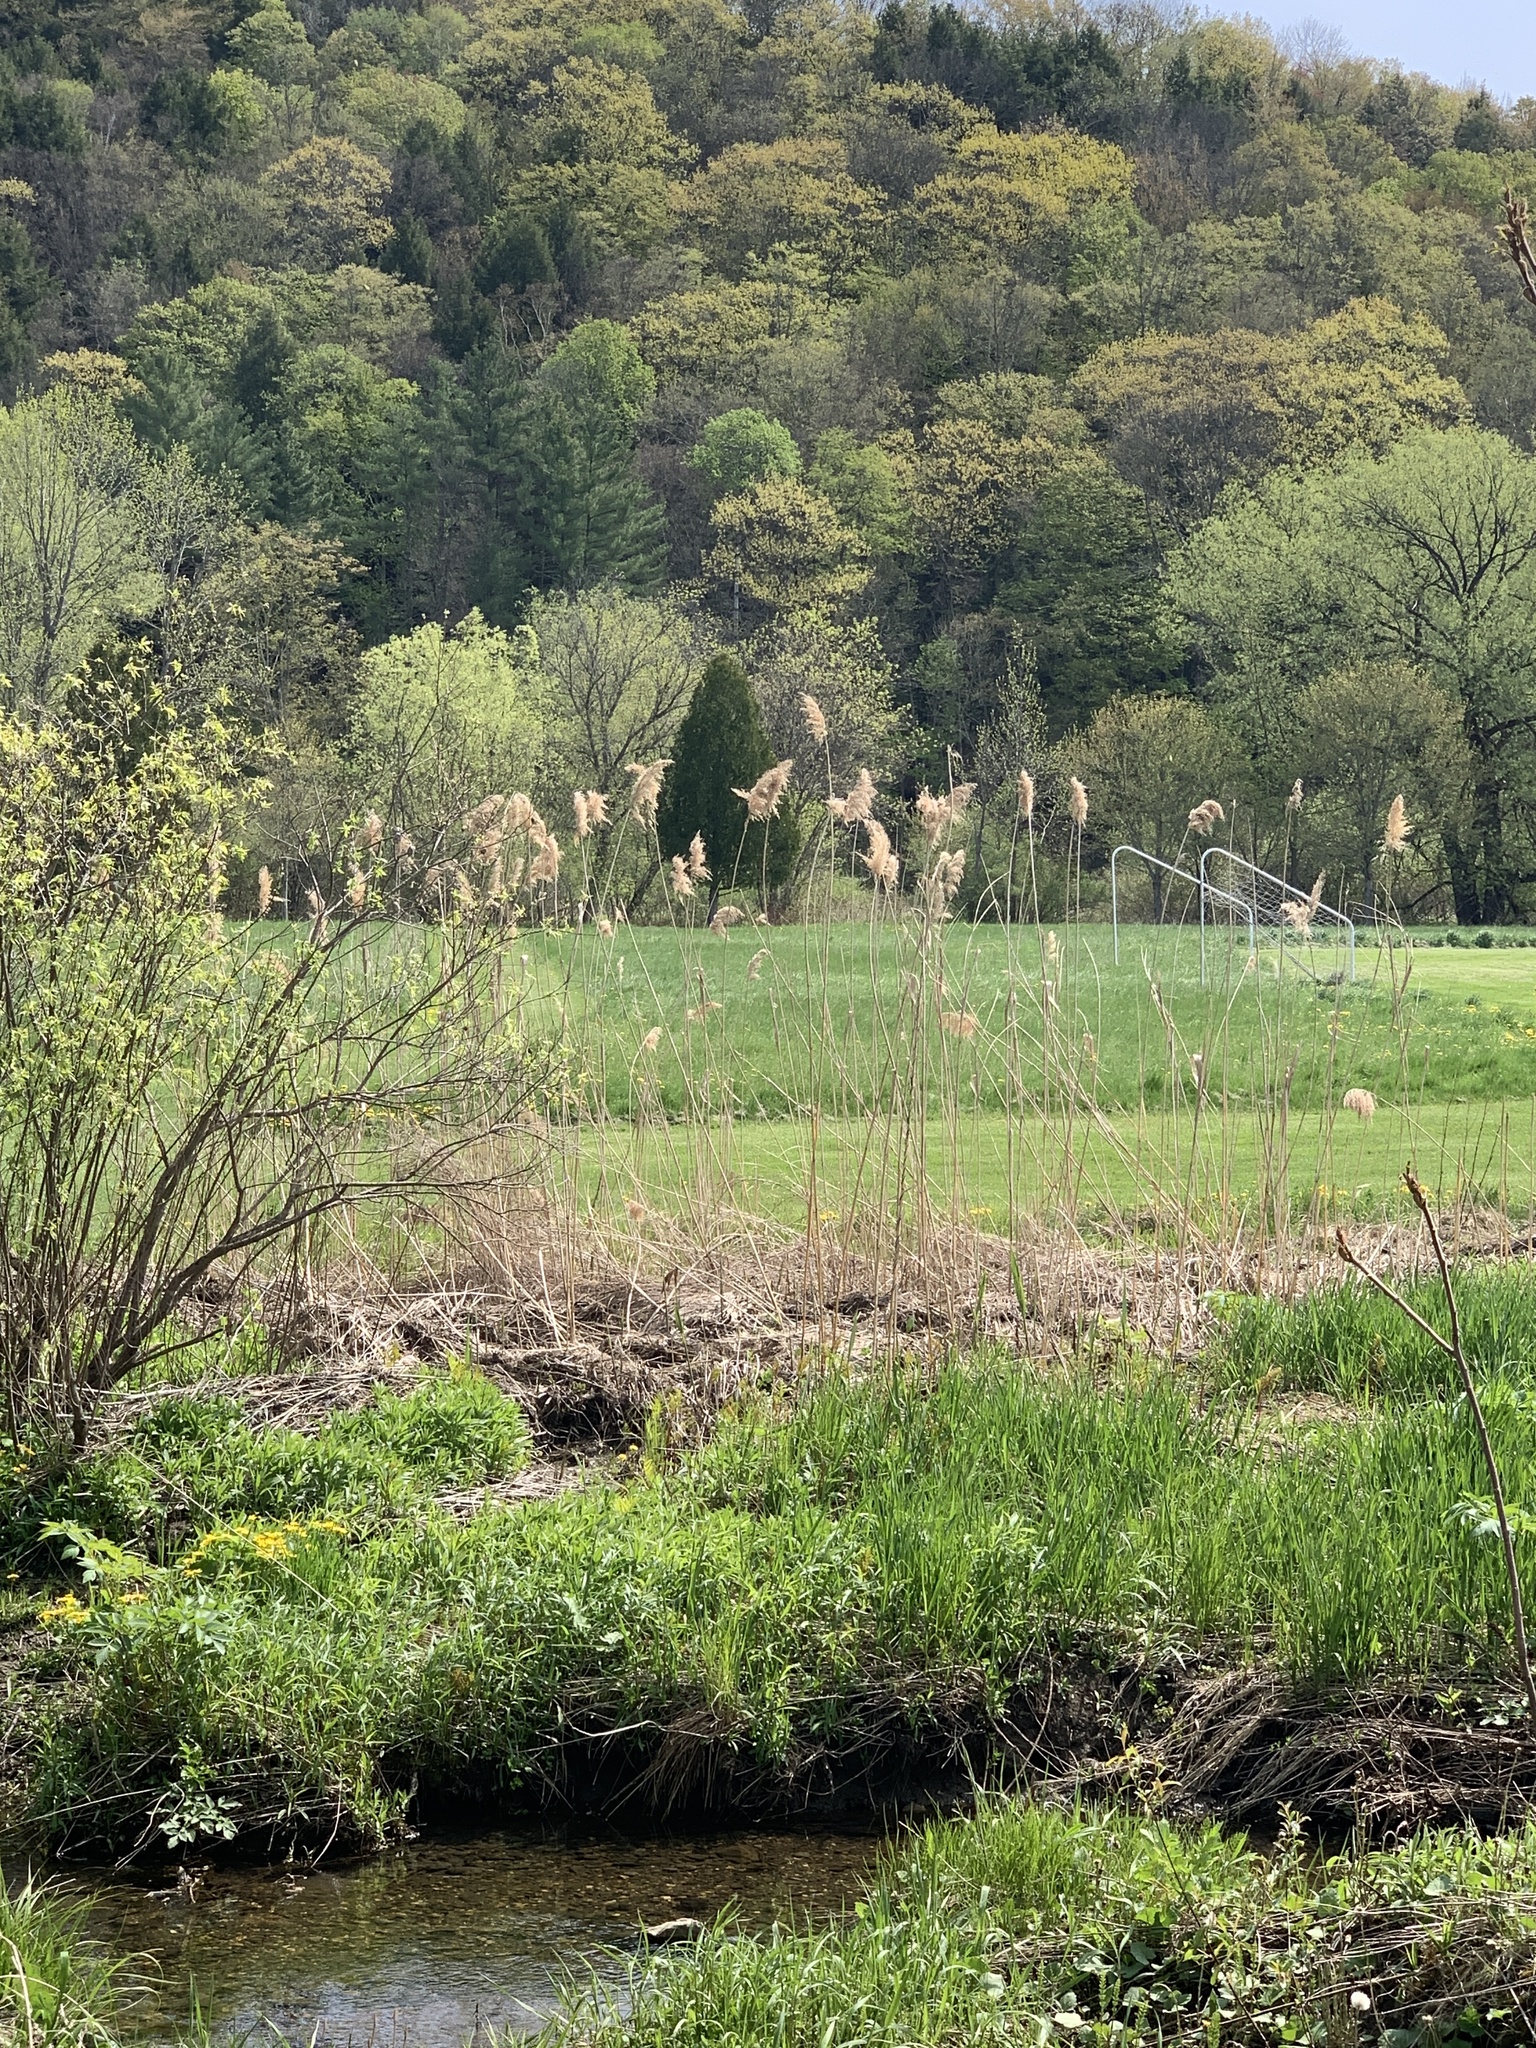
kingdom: Plantae
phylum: Tracheophyta
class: Liliopsida
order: Poales
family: Poaceae
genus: Phragmites
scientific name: Phragmites australis
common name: Common reed
